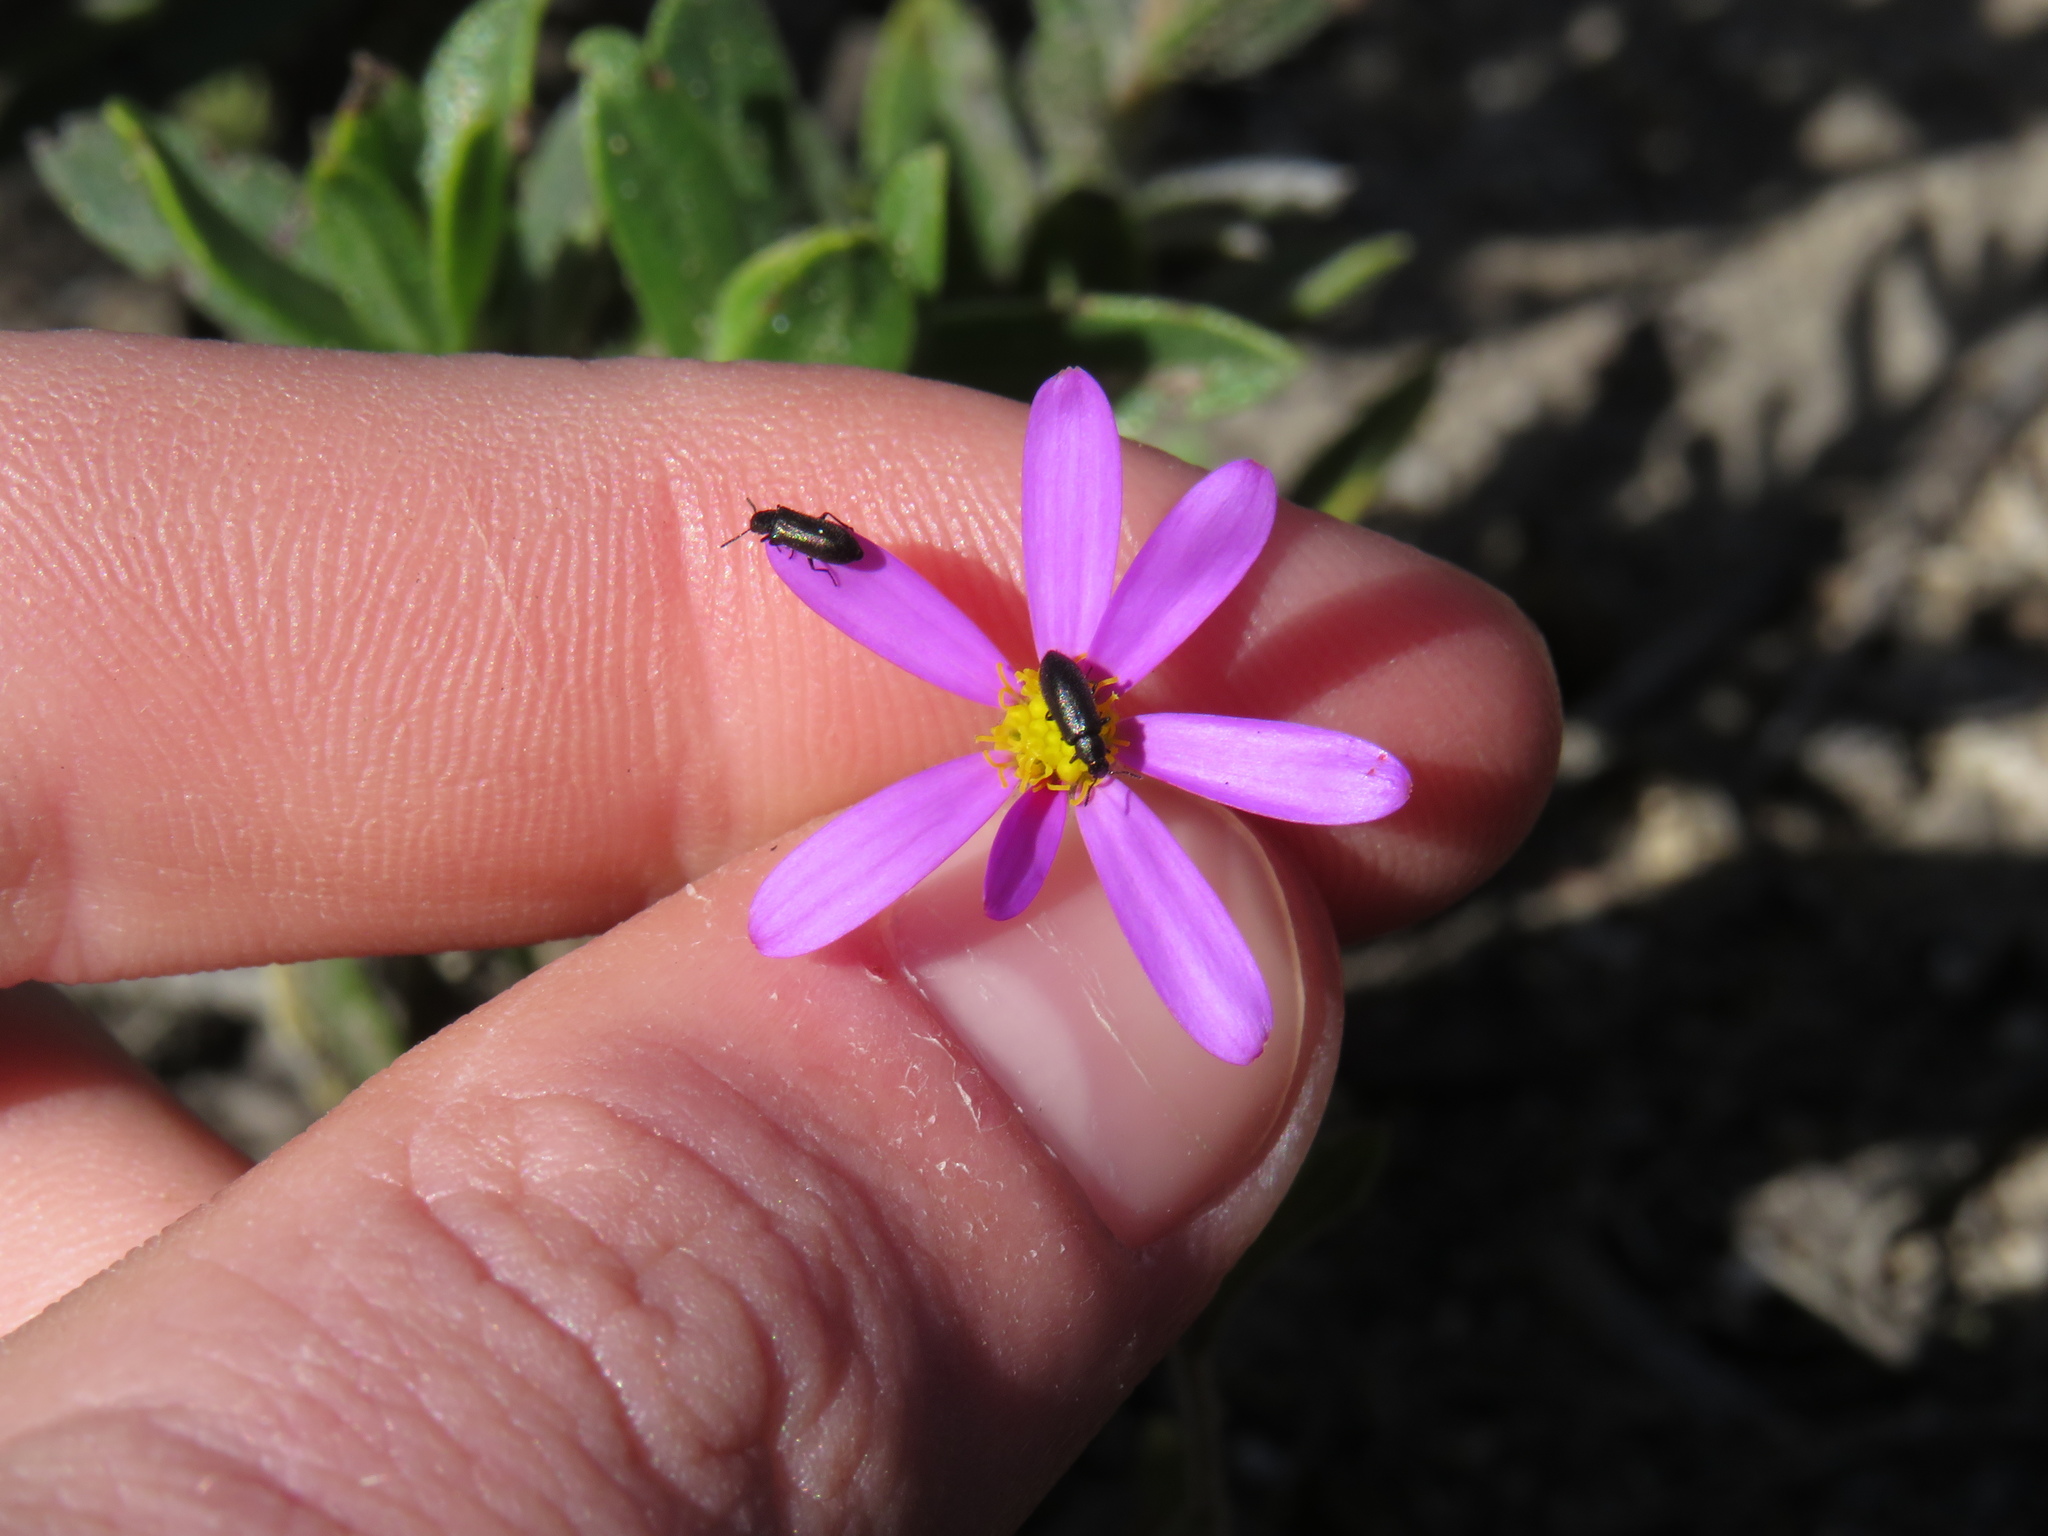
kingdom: Plantae
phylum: Tracheophyta
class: Magnoliopsida
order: Asterales
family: Asteraceae
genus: Senecio
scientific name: Senecio arenarius
